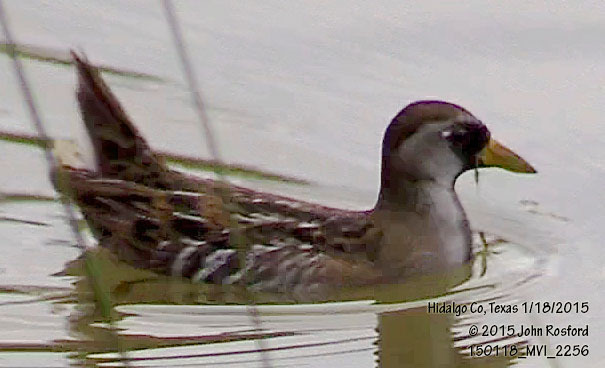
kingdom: Animalia
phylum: Chordata
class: Aves
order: Gruiformes
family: Rallidae
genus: Porzana
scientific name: Porzana carolina
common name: Sora
